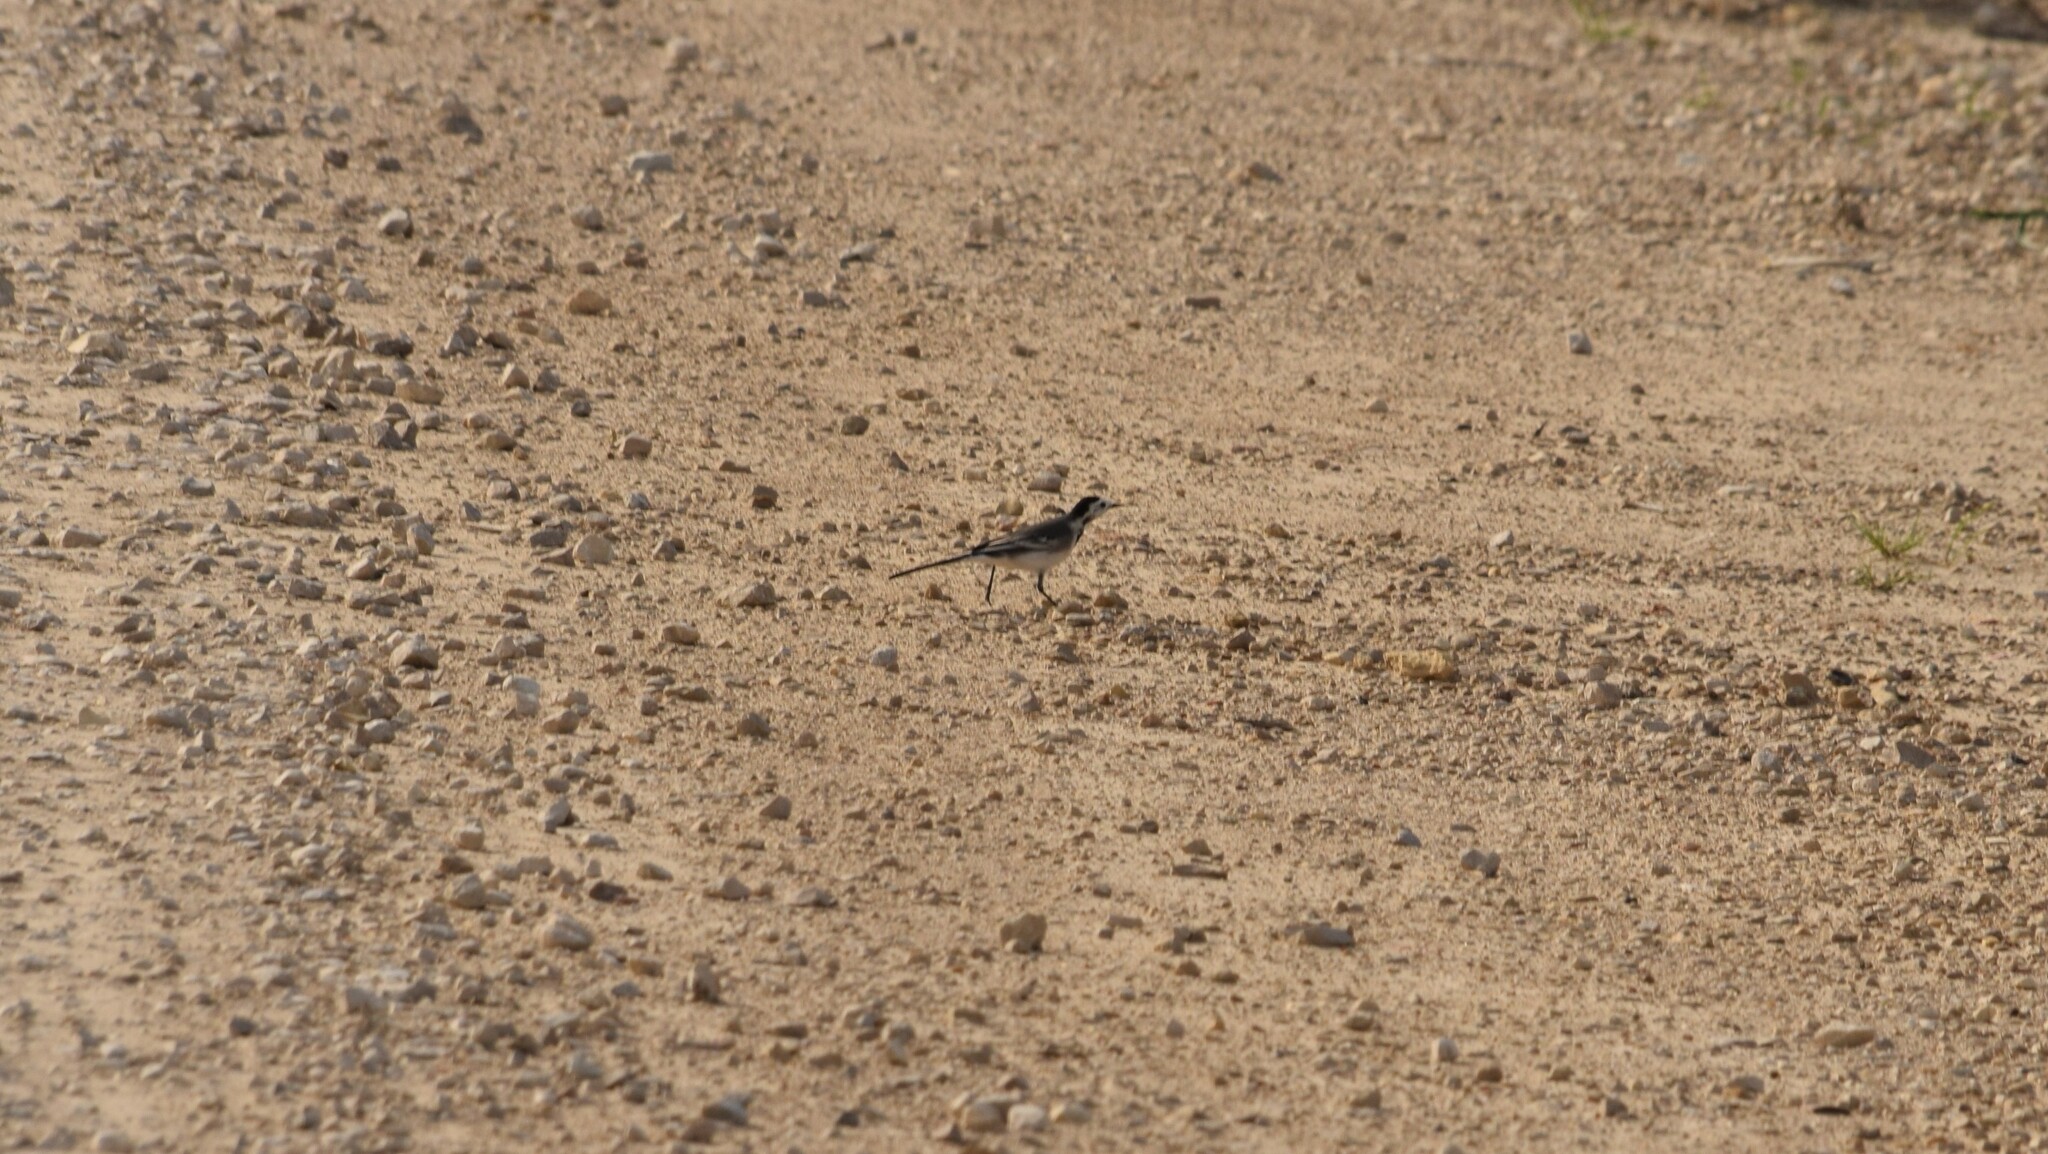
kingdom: Animalia
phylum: Chordata
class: Aves
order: Passeriformes
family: Motacillidae
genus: Motacilla
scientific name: Motacilla alba
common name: White wagtail
